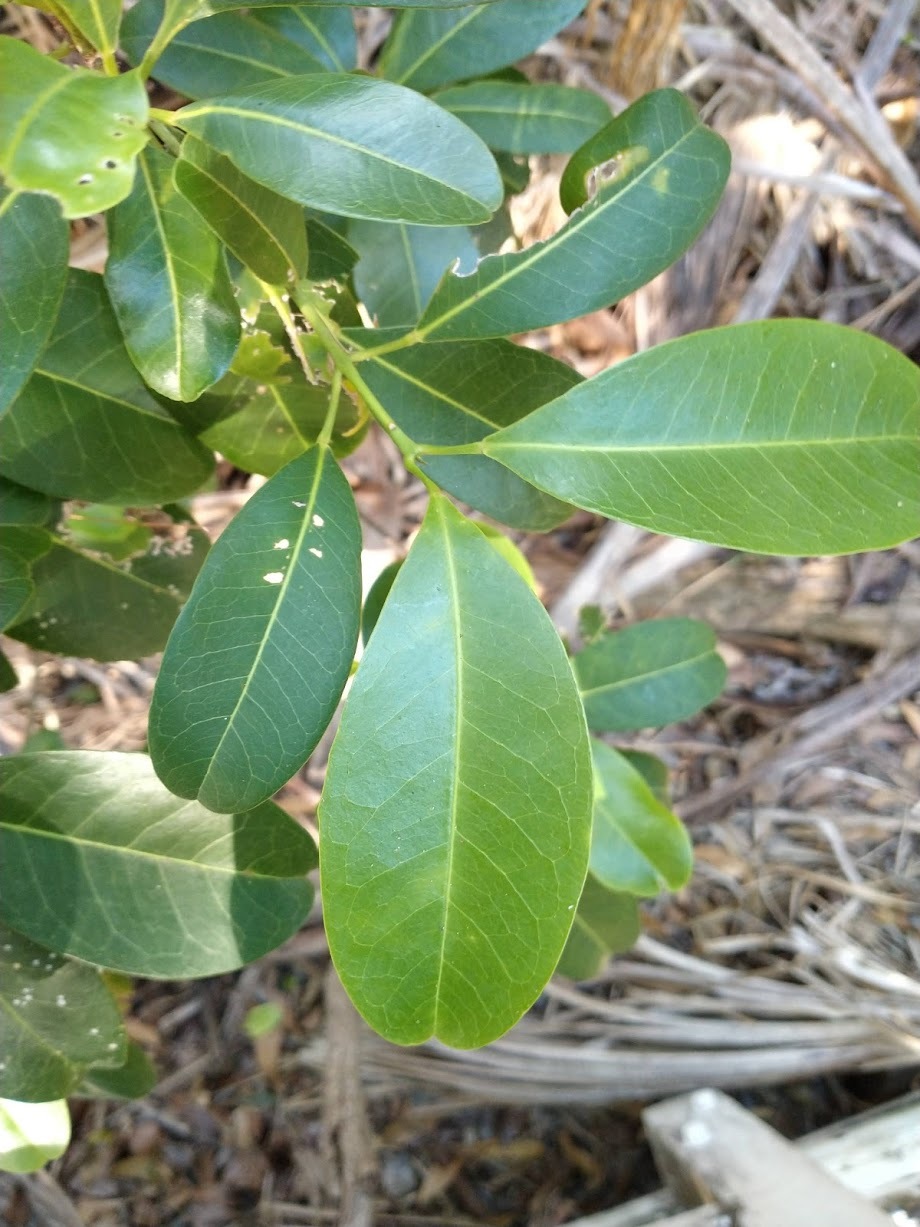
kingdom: Plantae
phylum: Tracheophyta
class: Magnoliopsida
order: Sapindales
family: Rutaceae
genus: Acronychia
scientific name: Acronychia imperforata
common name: Beach acronychia
